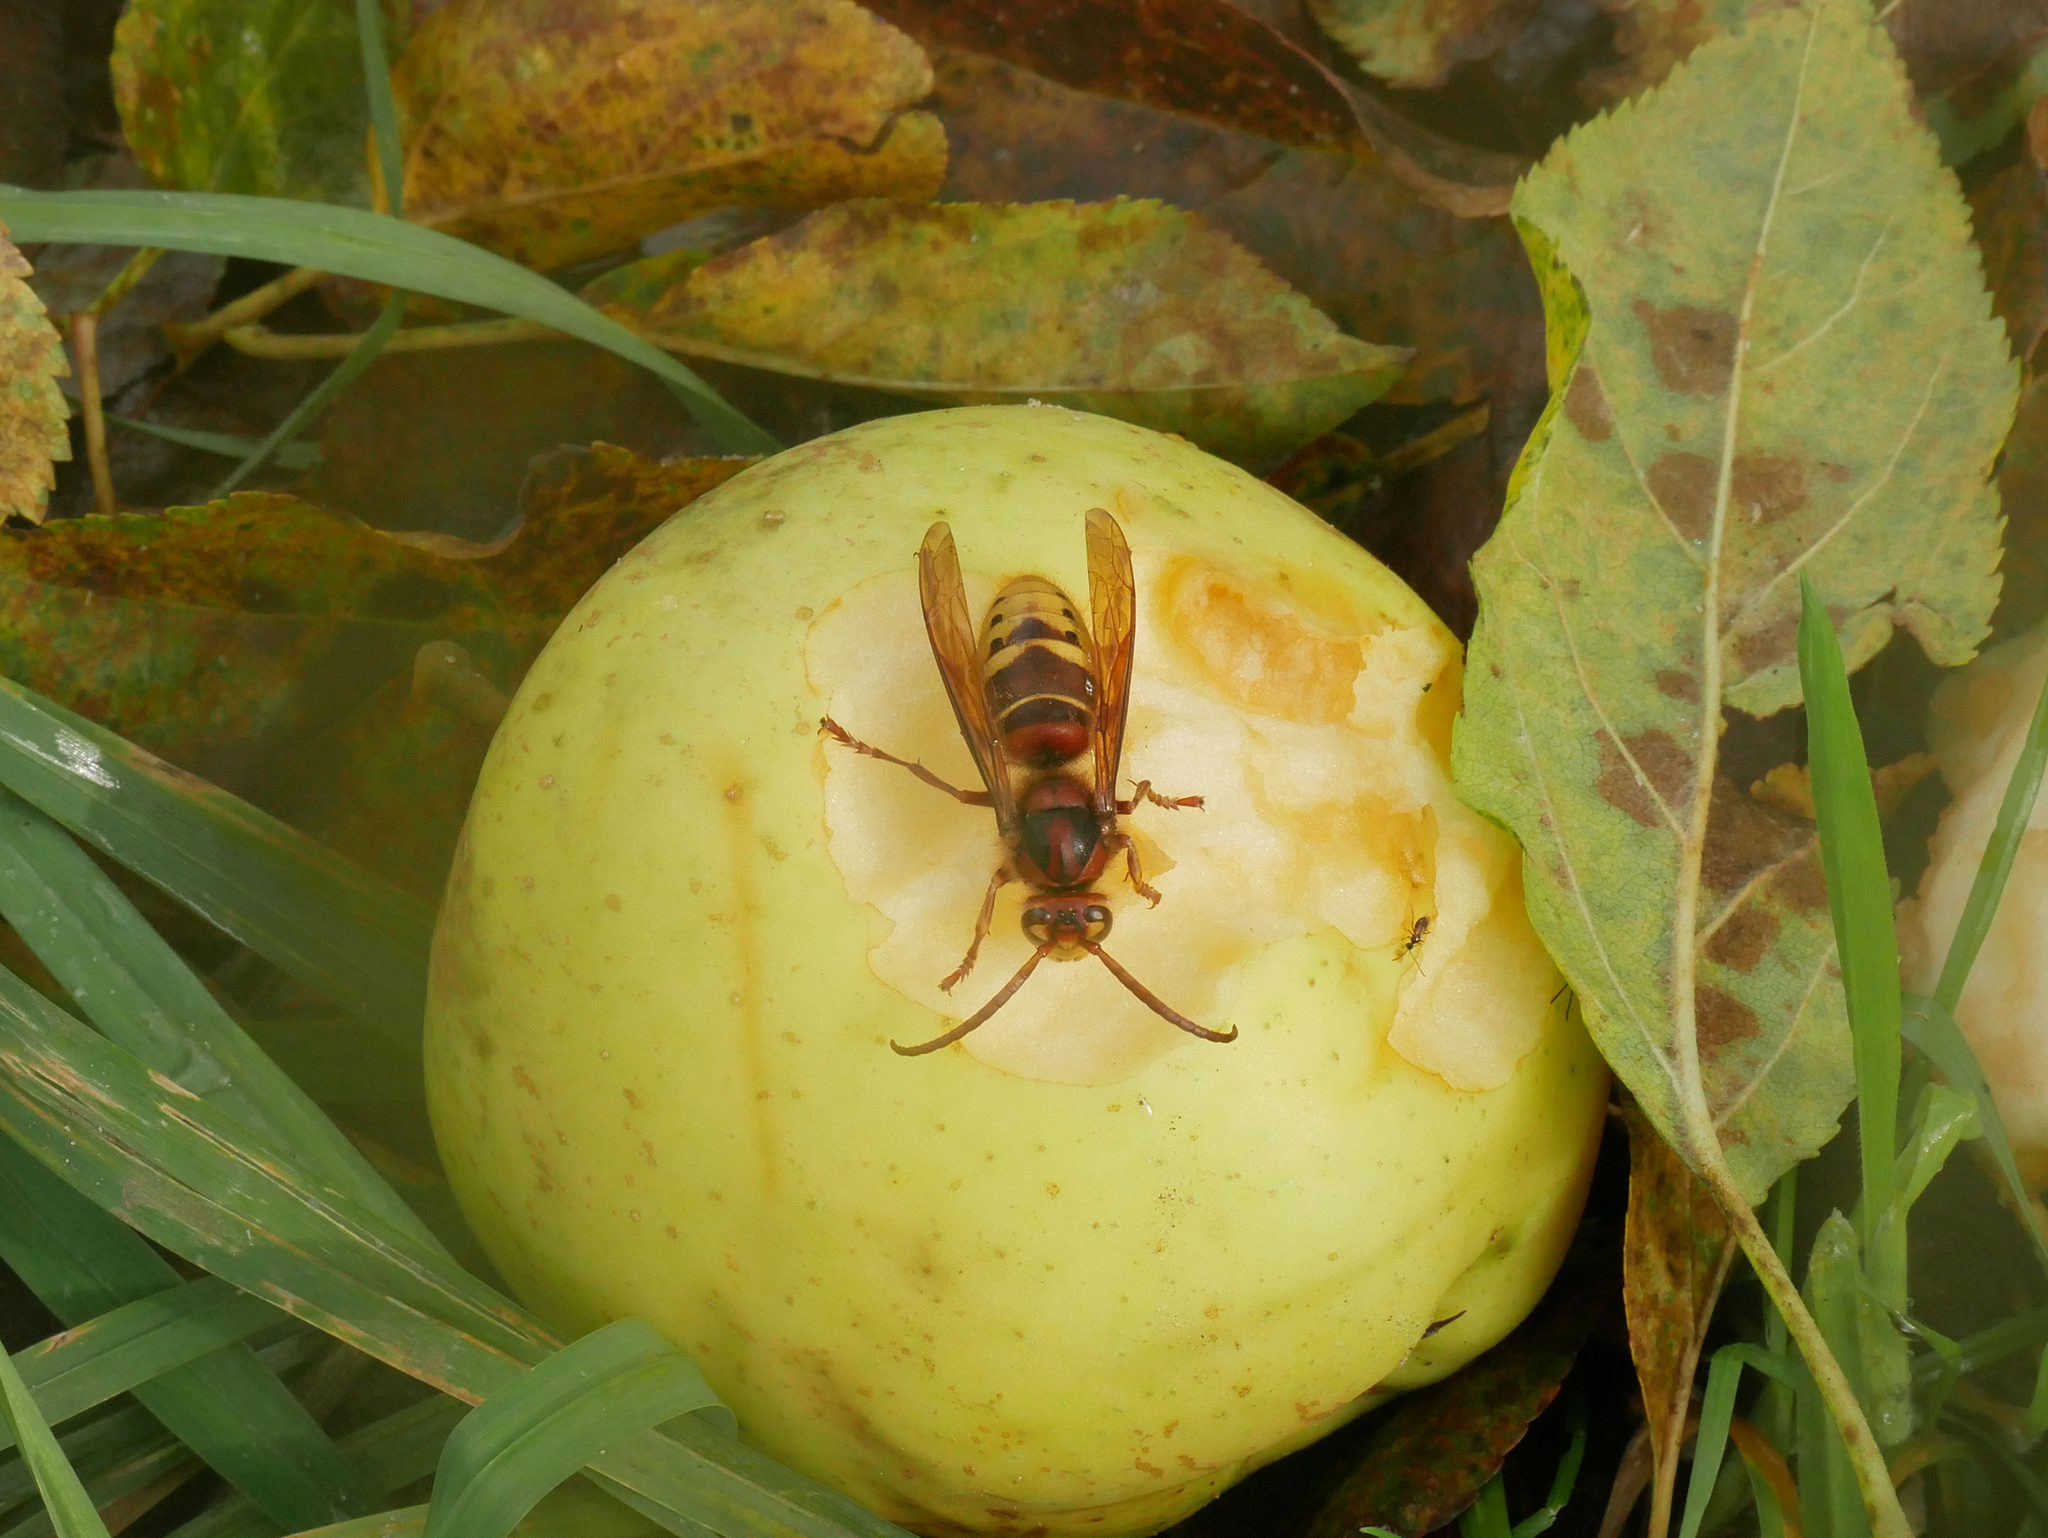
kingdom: Animalia
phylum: Arthropoda
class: Insecta
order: Hymenoptera
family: Vespidae
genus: Vespa
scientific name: Vespa crabro
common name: Hornet
